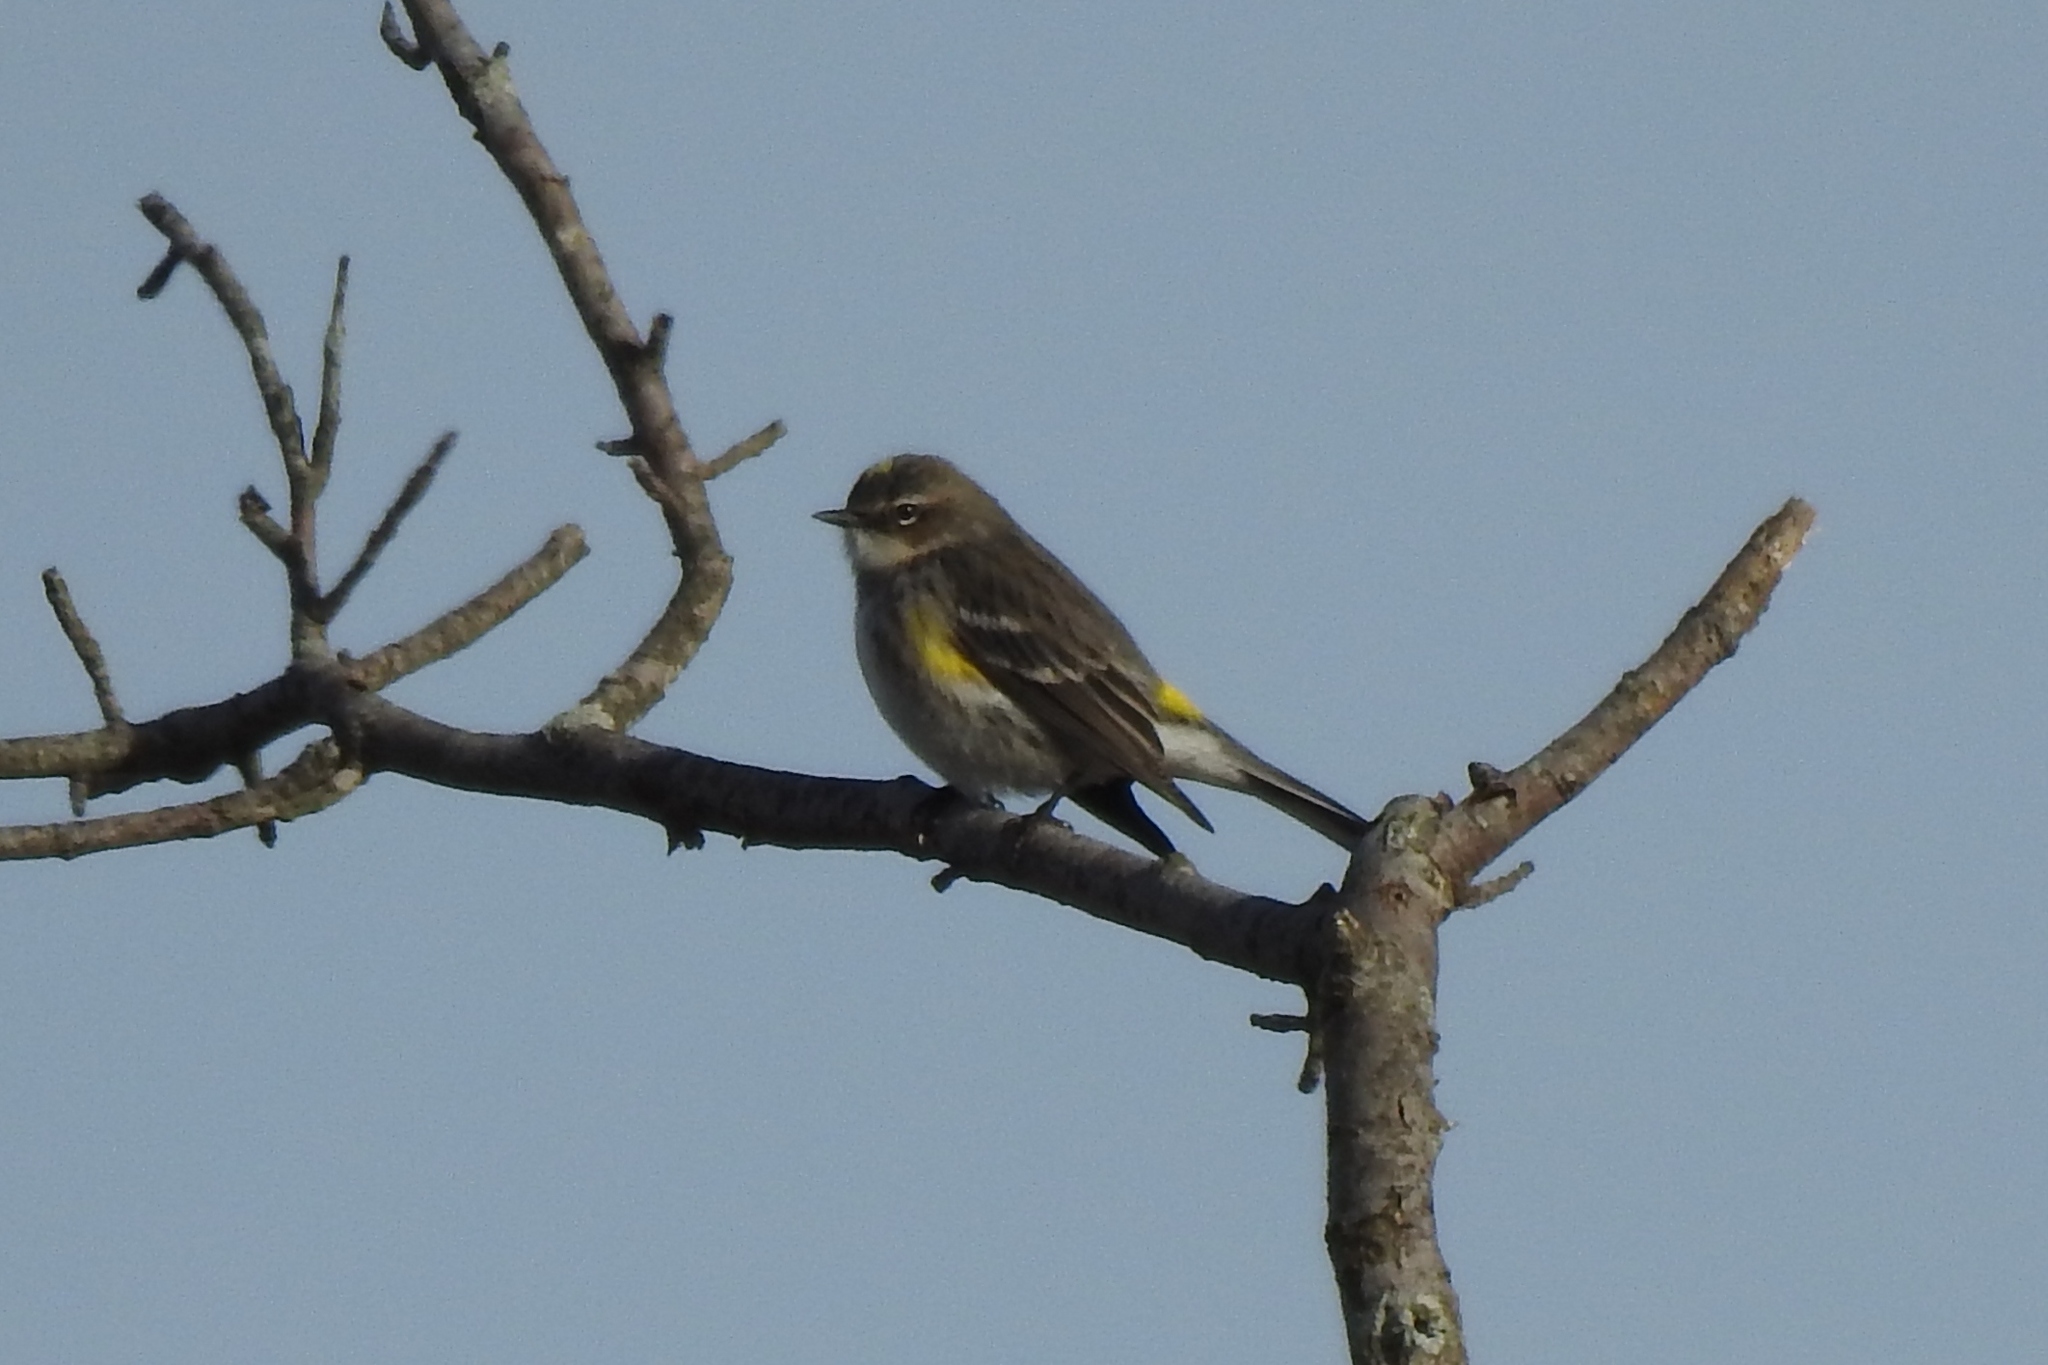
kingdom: Animalia
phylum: Chordata
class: Aves
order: Passeriformes
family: Parulidae
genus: Setophaga
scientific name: Setophaga coronata
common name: Myrtle warbler
